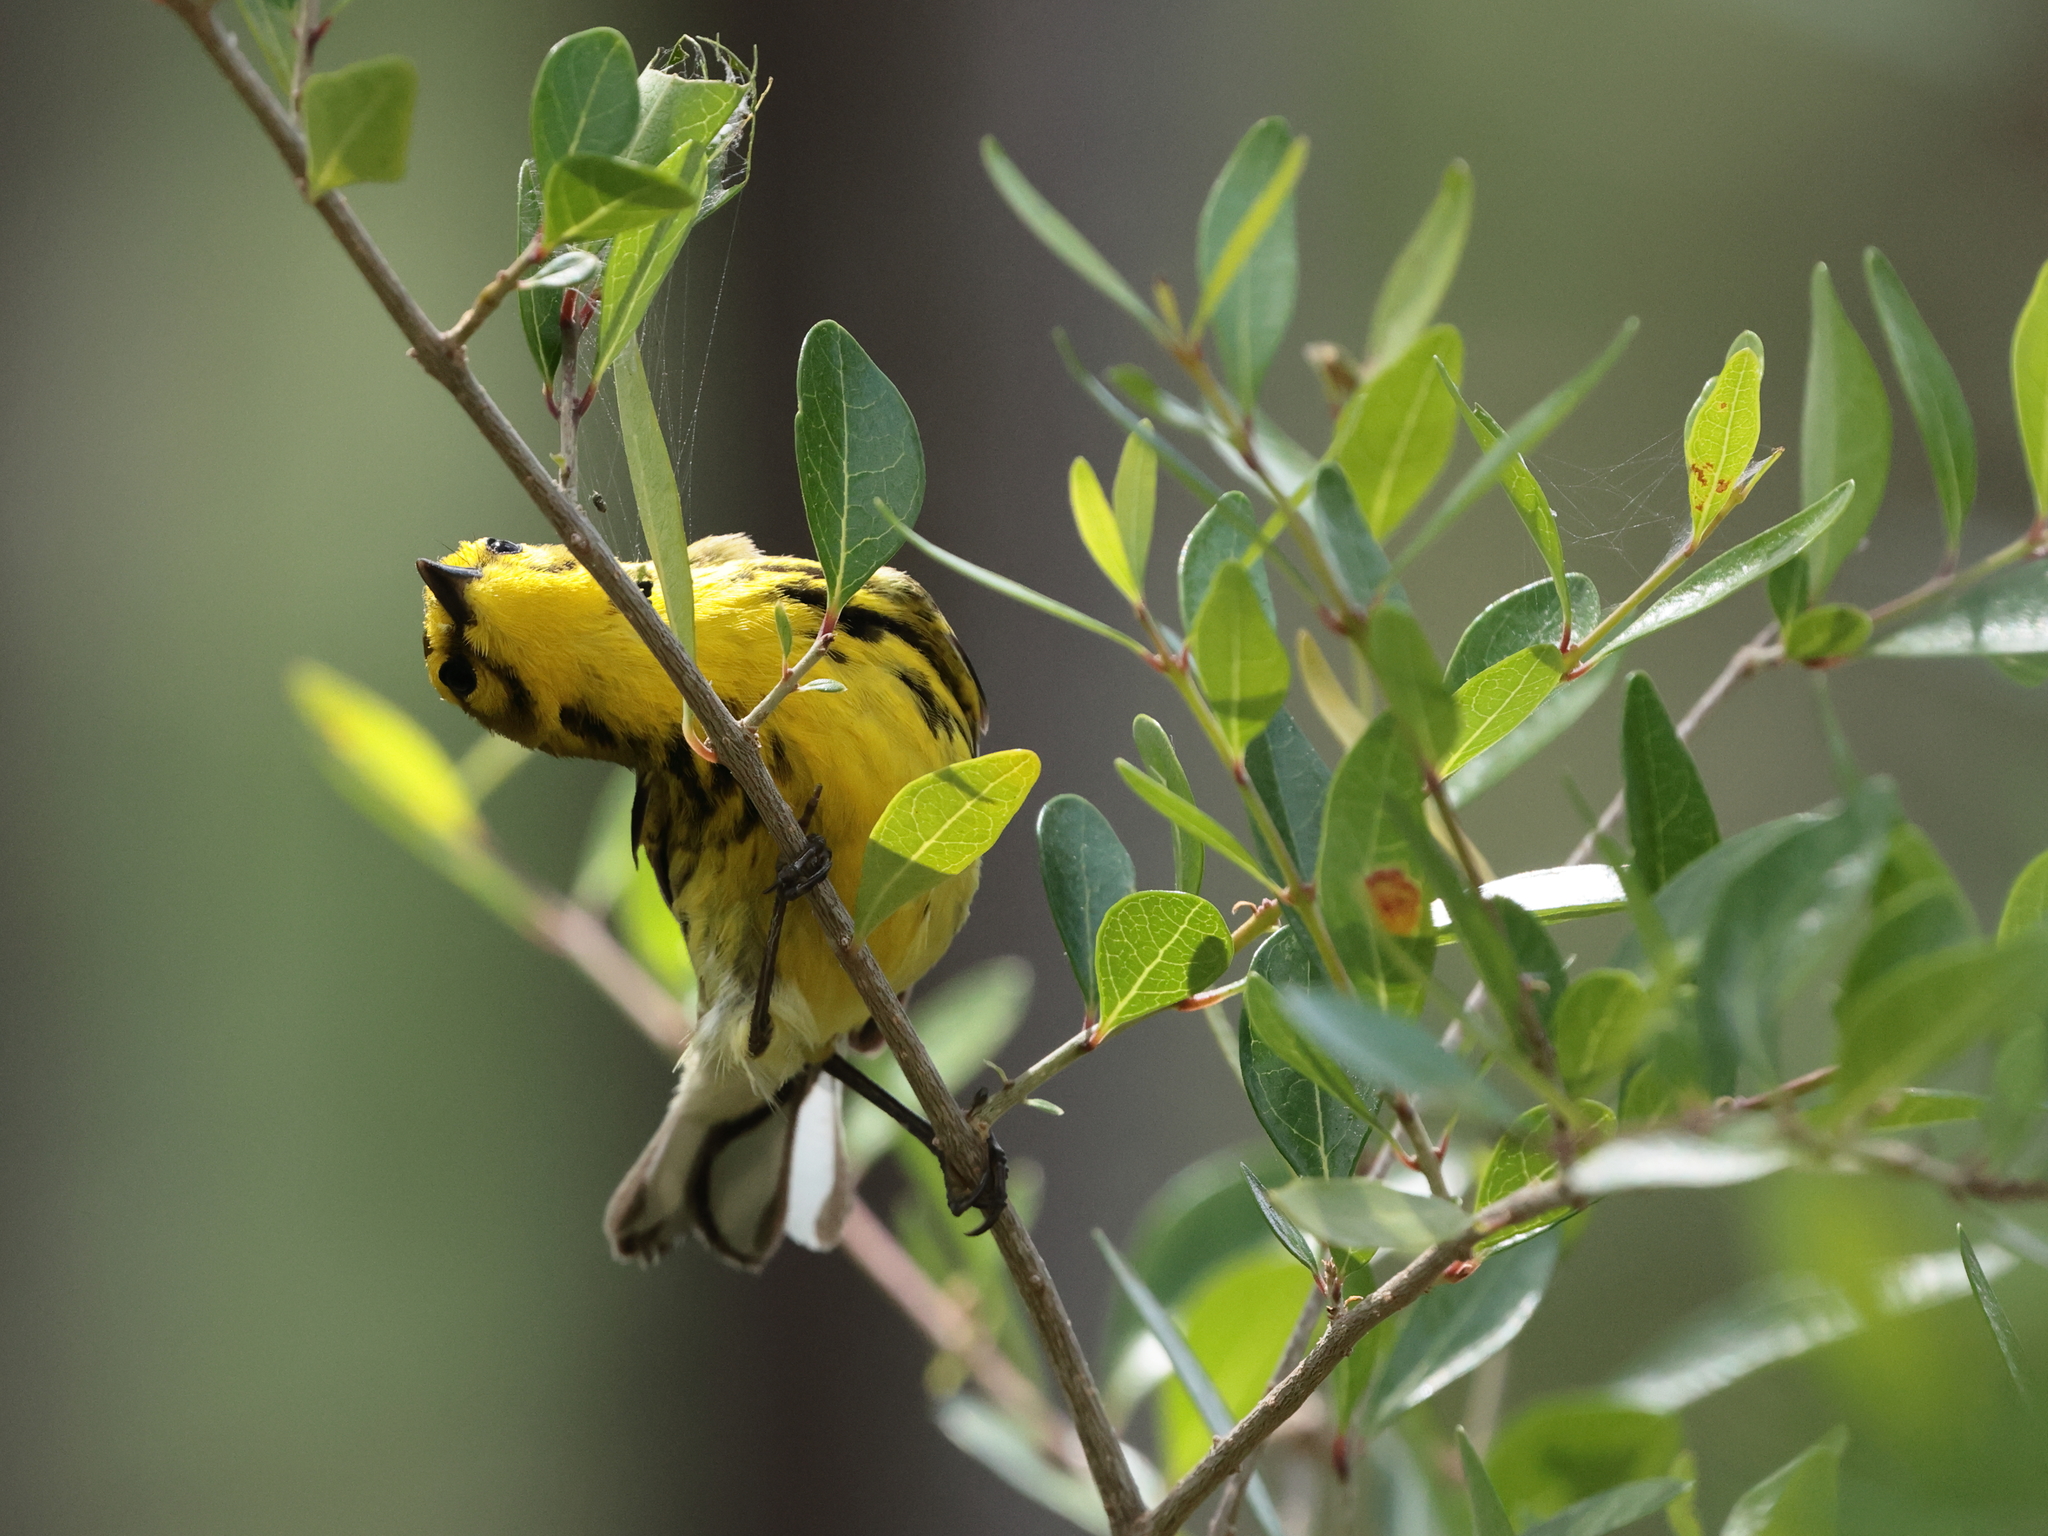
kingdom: Animalia
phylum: Chordata
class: Aves
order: Passeriformes
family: Parulidae
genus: Setophaga
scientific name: Setophaga discolor
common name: Prairie warbler
